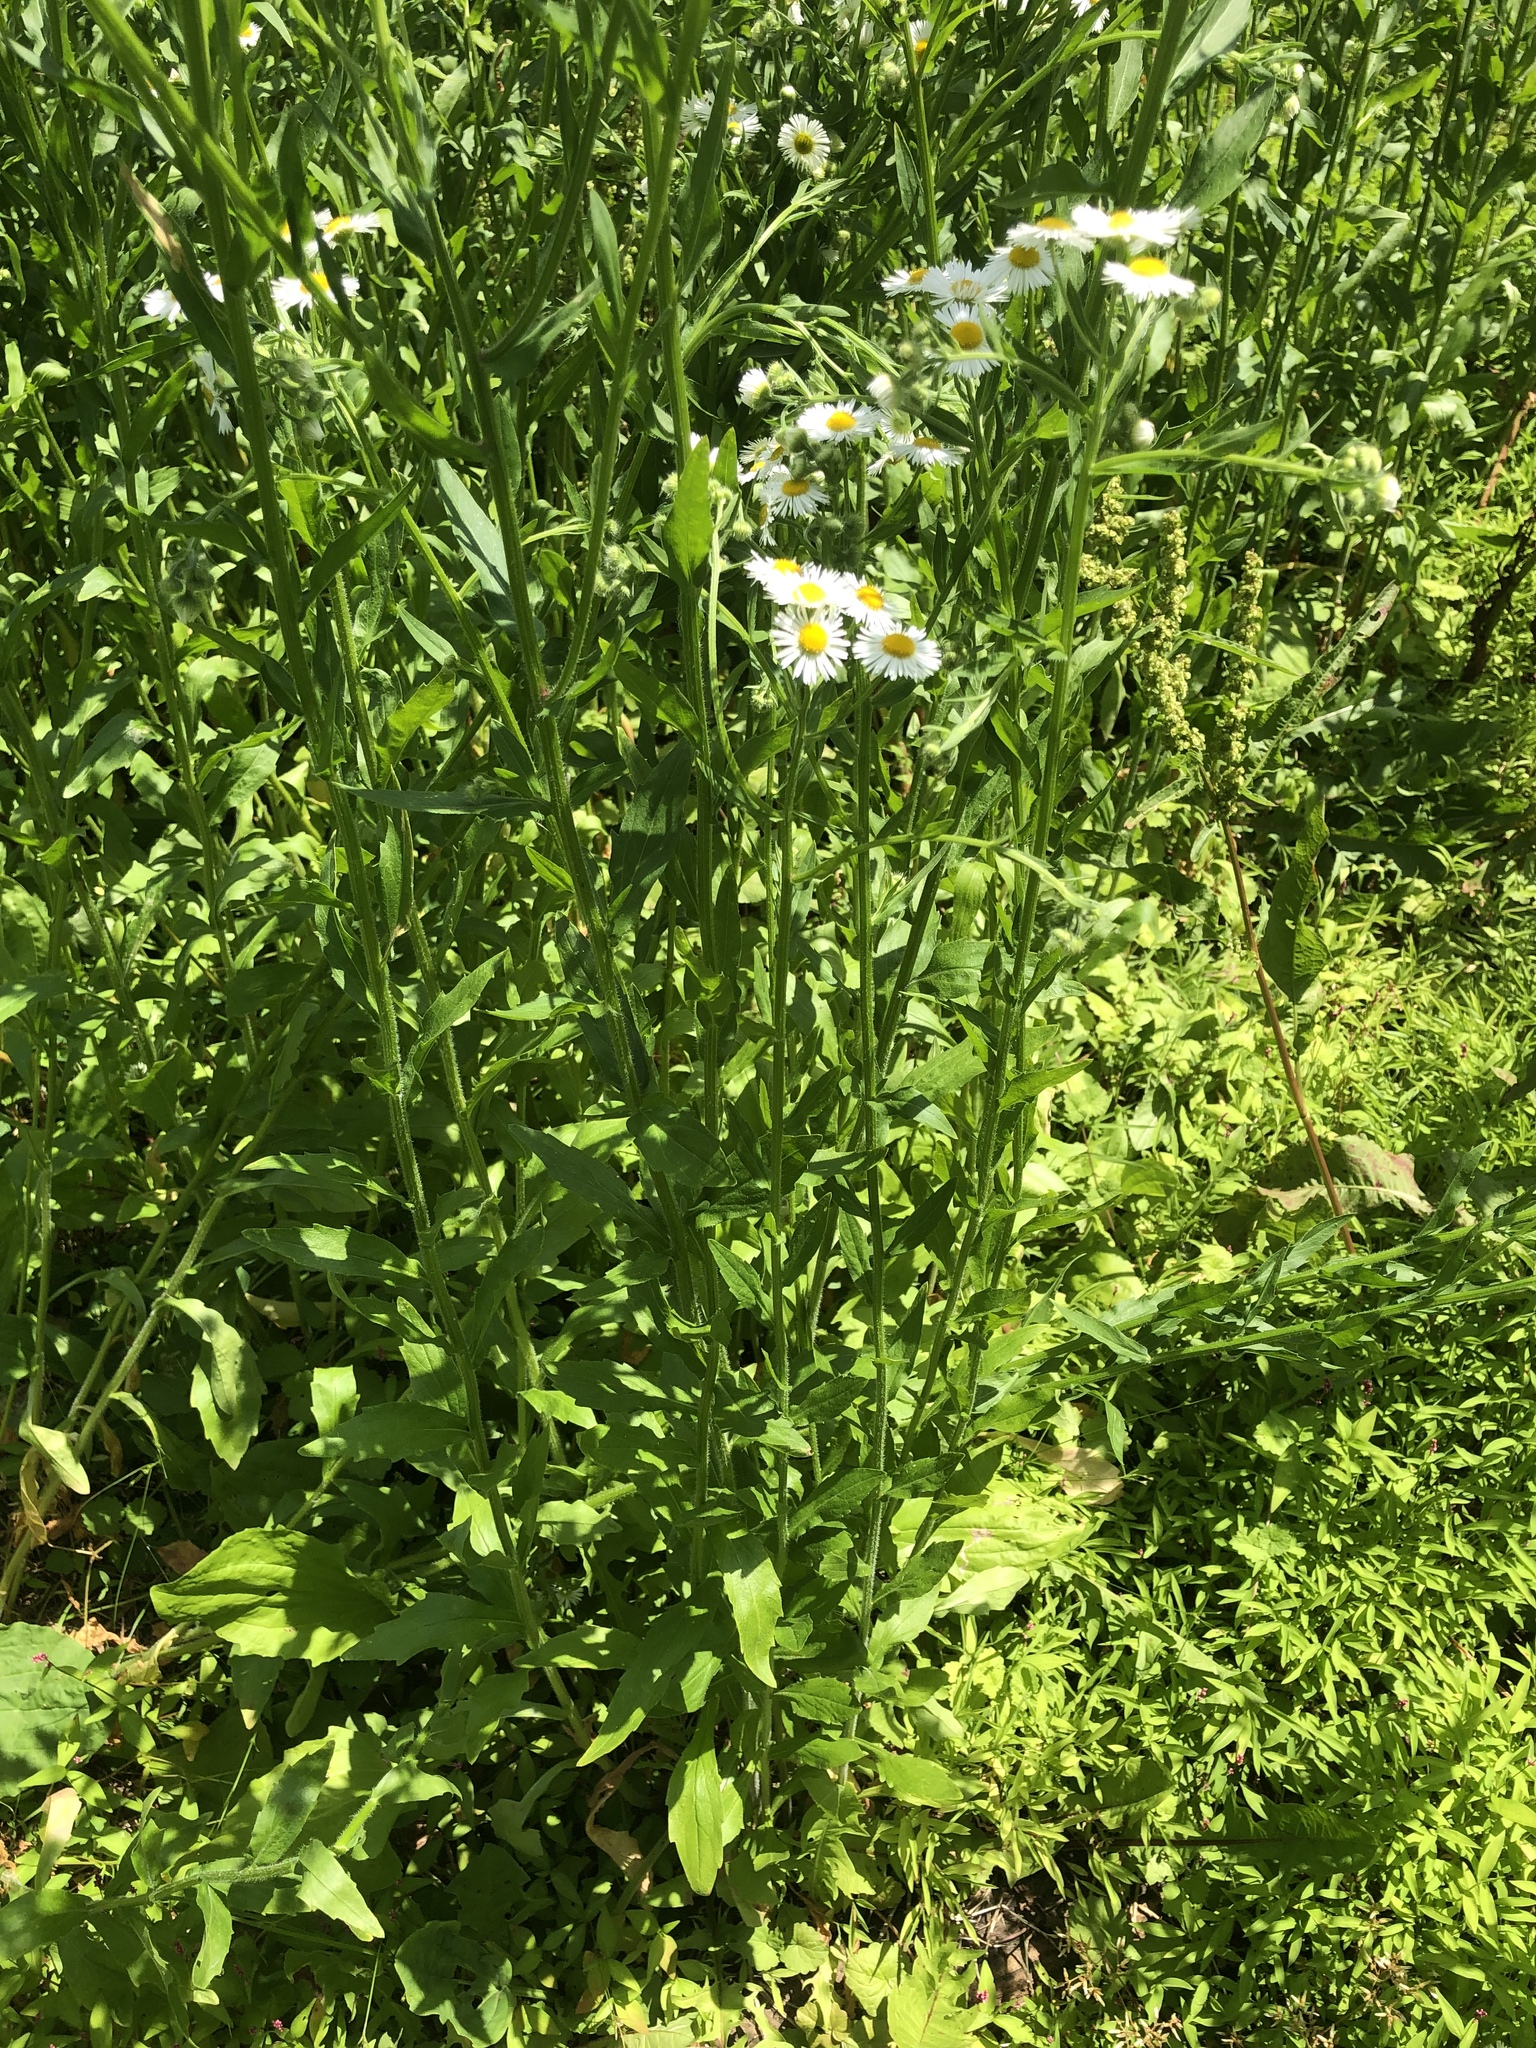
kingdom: Plantae
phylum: Tracheophyta
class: Magnoliopsida
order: Asterales
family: Asteraceae
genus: Erigeron
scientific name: Erigeron annuus
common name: Tall fleabane
